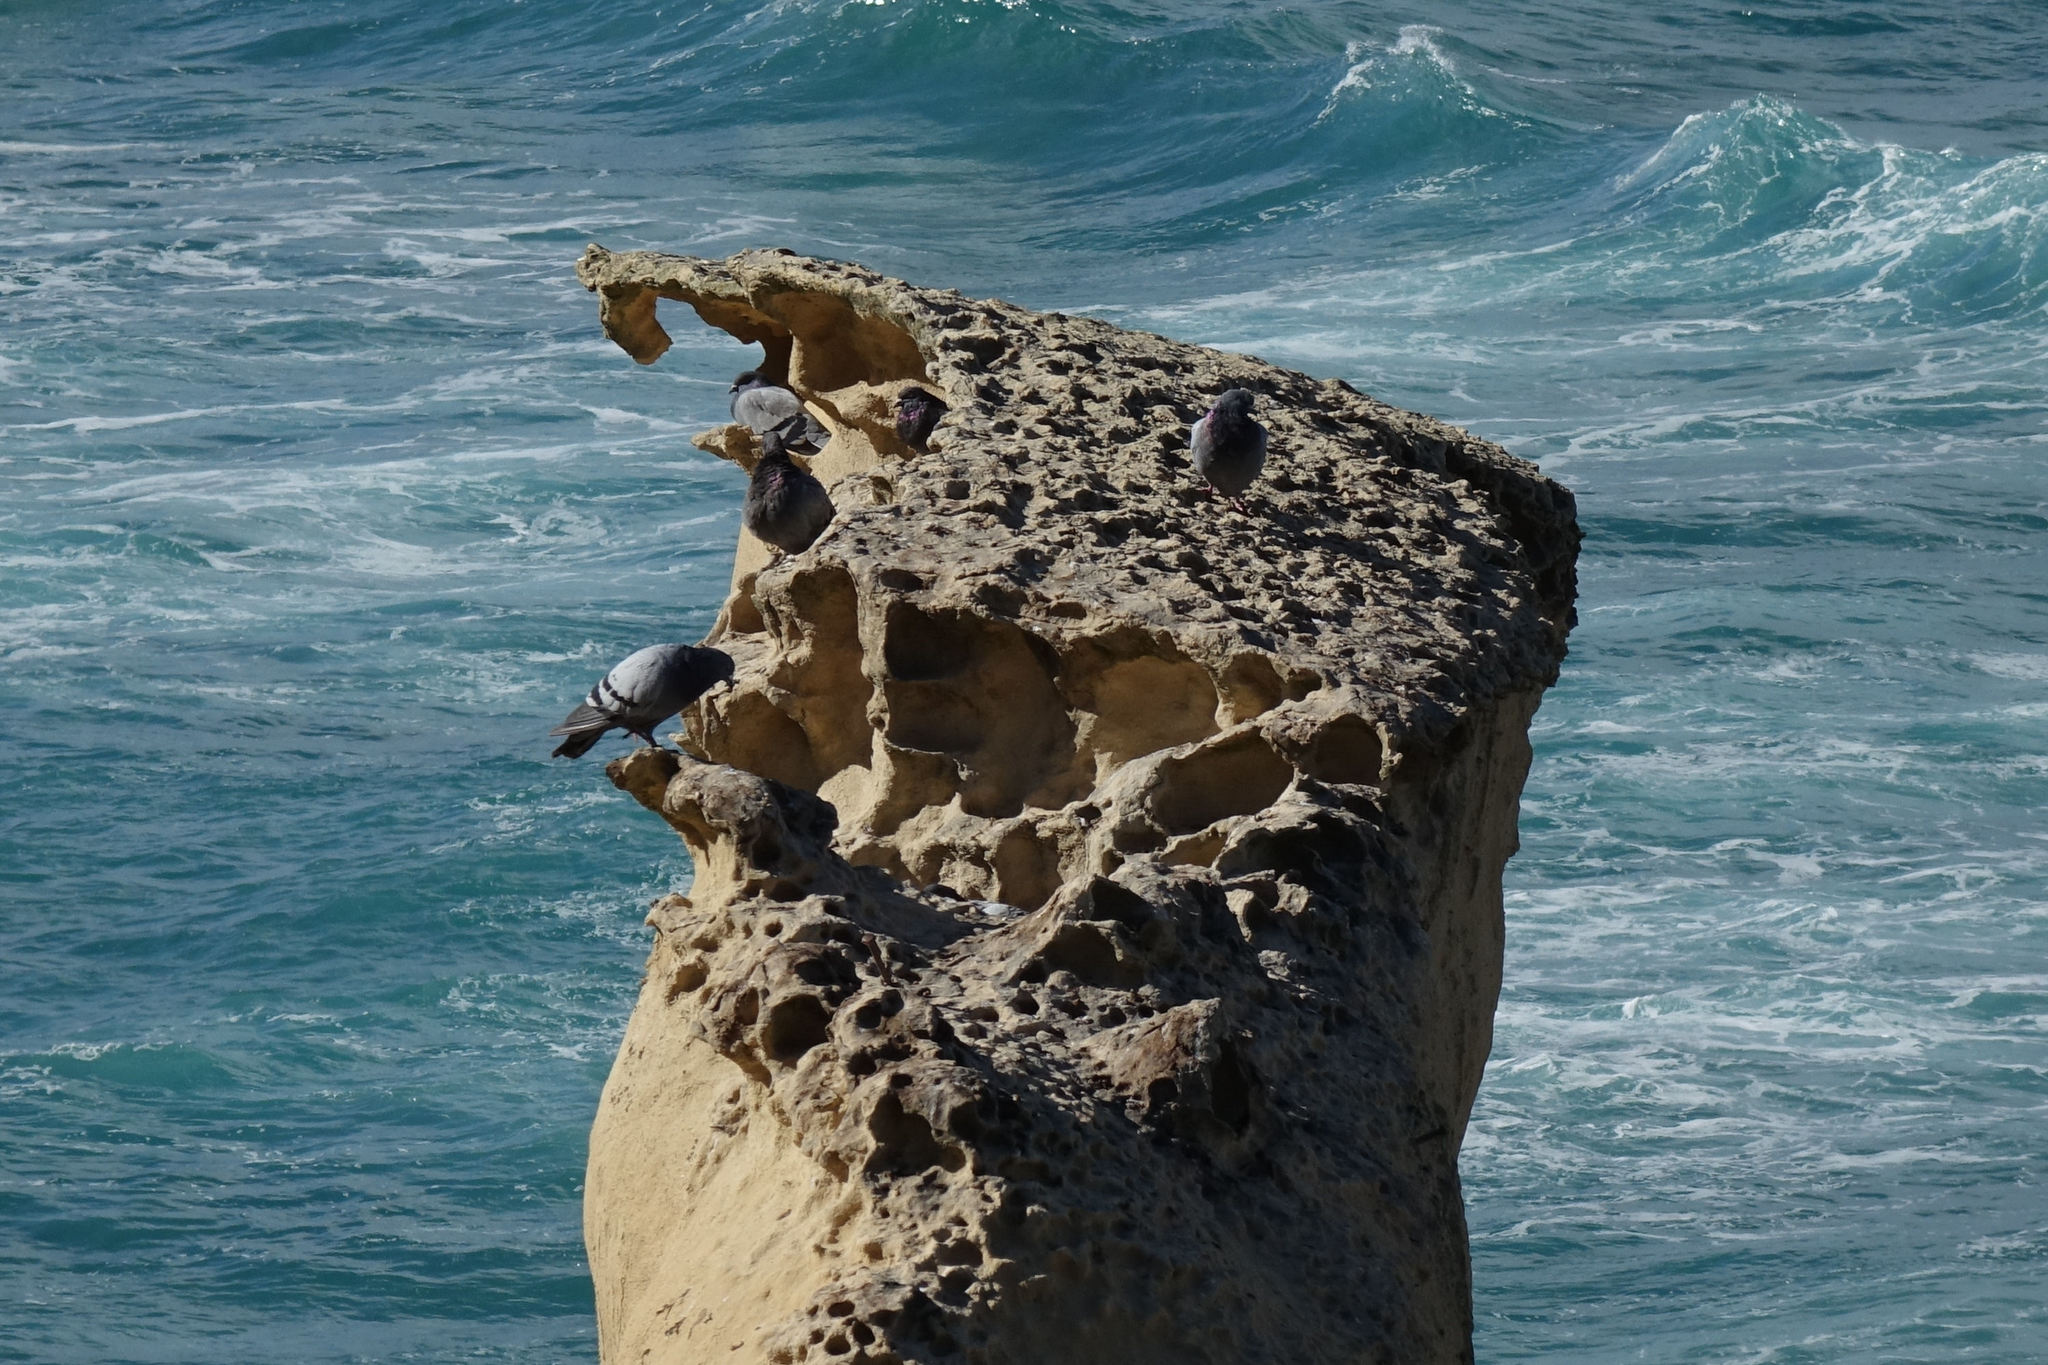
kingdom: Animalia
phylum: Chordata
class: Aves
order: Columbiformes
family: Columbidae
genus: Columba
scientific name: Columba livia
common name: Rock pigeon
